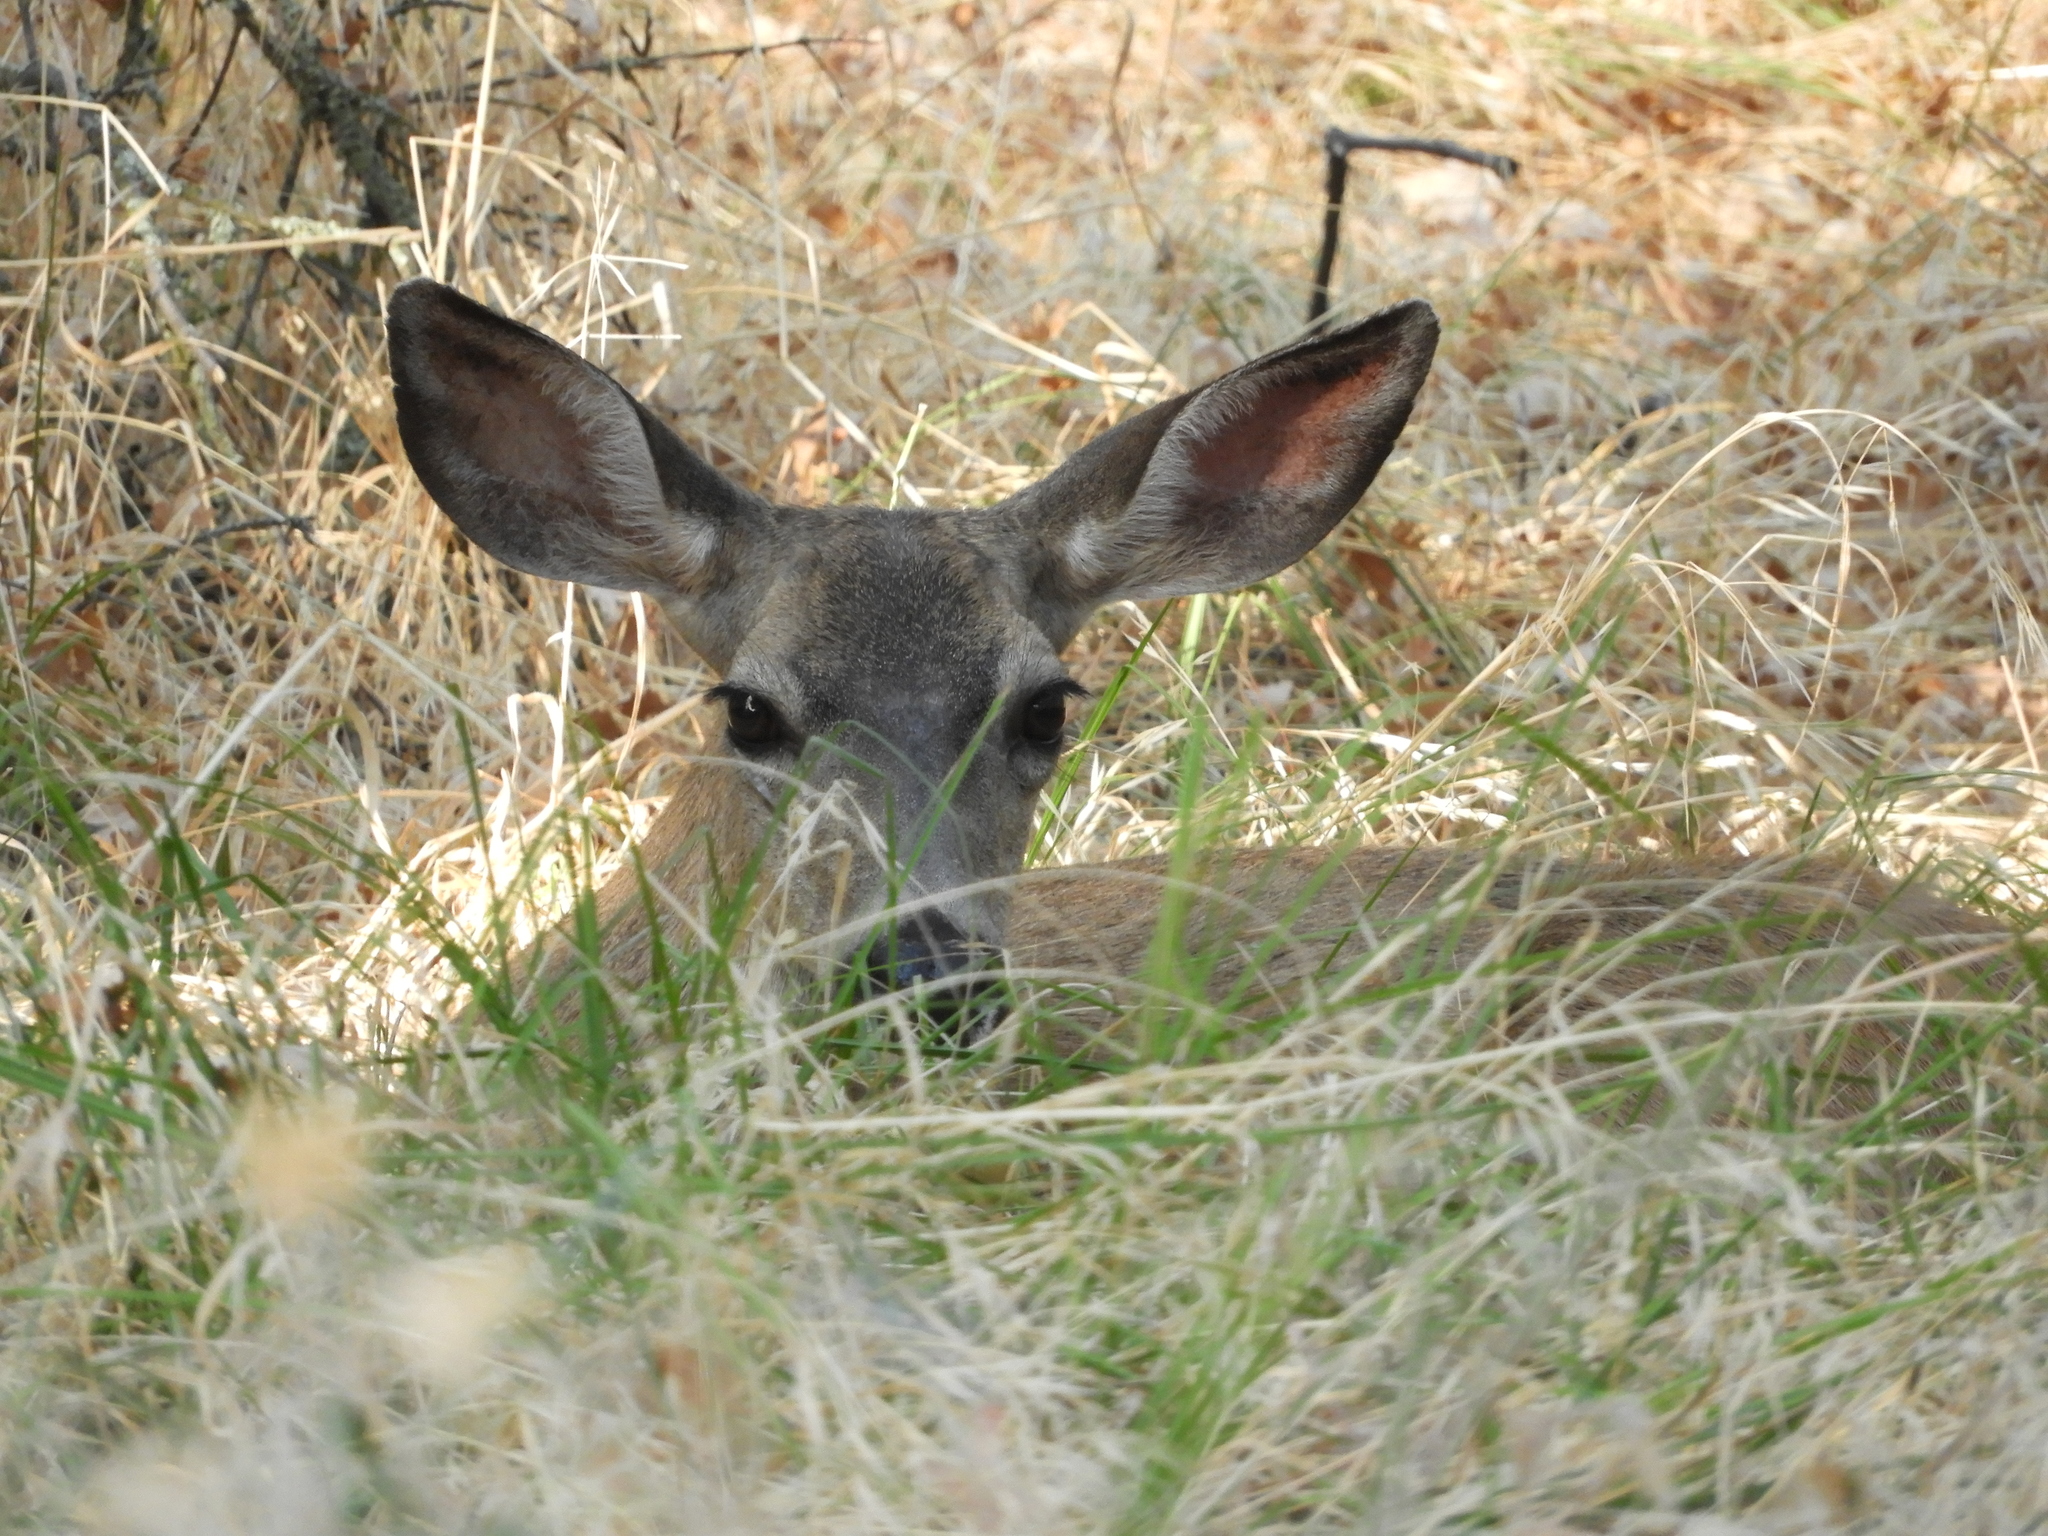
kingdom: Animalia
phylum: Chordata
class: Mammalia
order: Artiodactyla
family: Cervidae
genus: Odocoileus
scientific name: Odocoileus hemionus
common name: Mule deer
